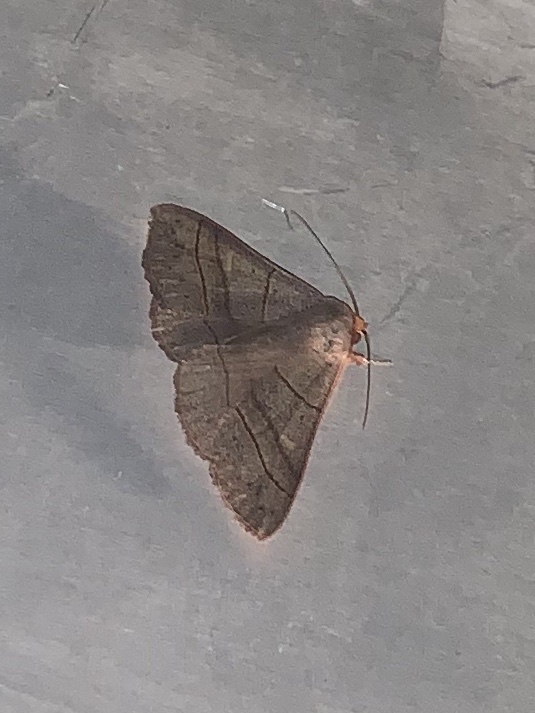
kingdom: Animalia
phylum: Arthropoda
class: Insecta
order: Lepidoptera
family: Erebidae
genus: Panopoda
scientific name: Panopoda rufimargo
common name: Red-lined panopoda moth
